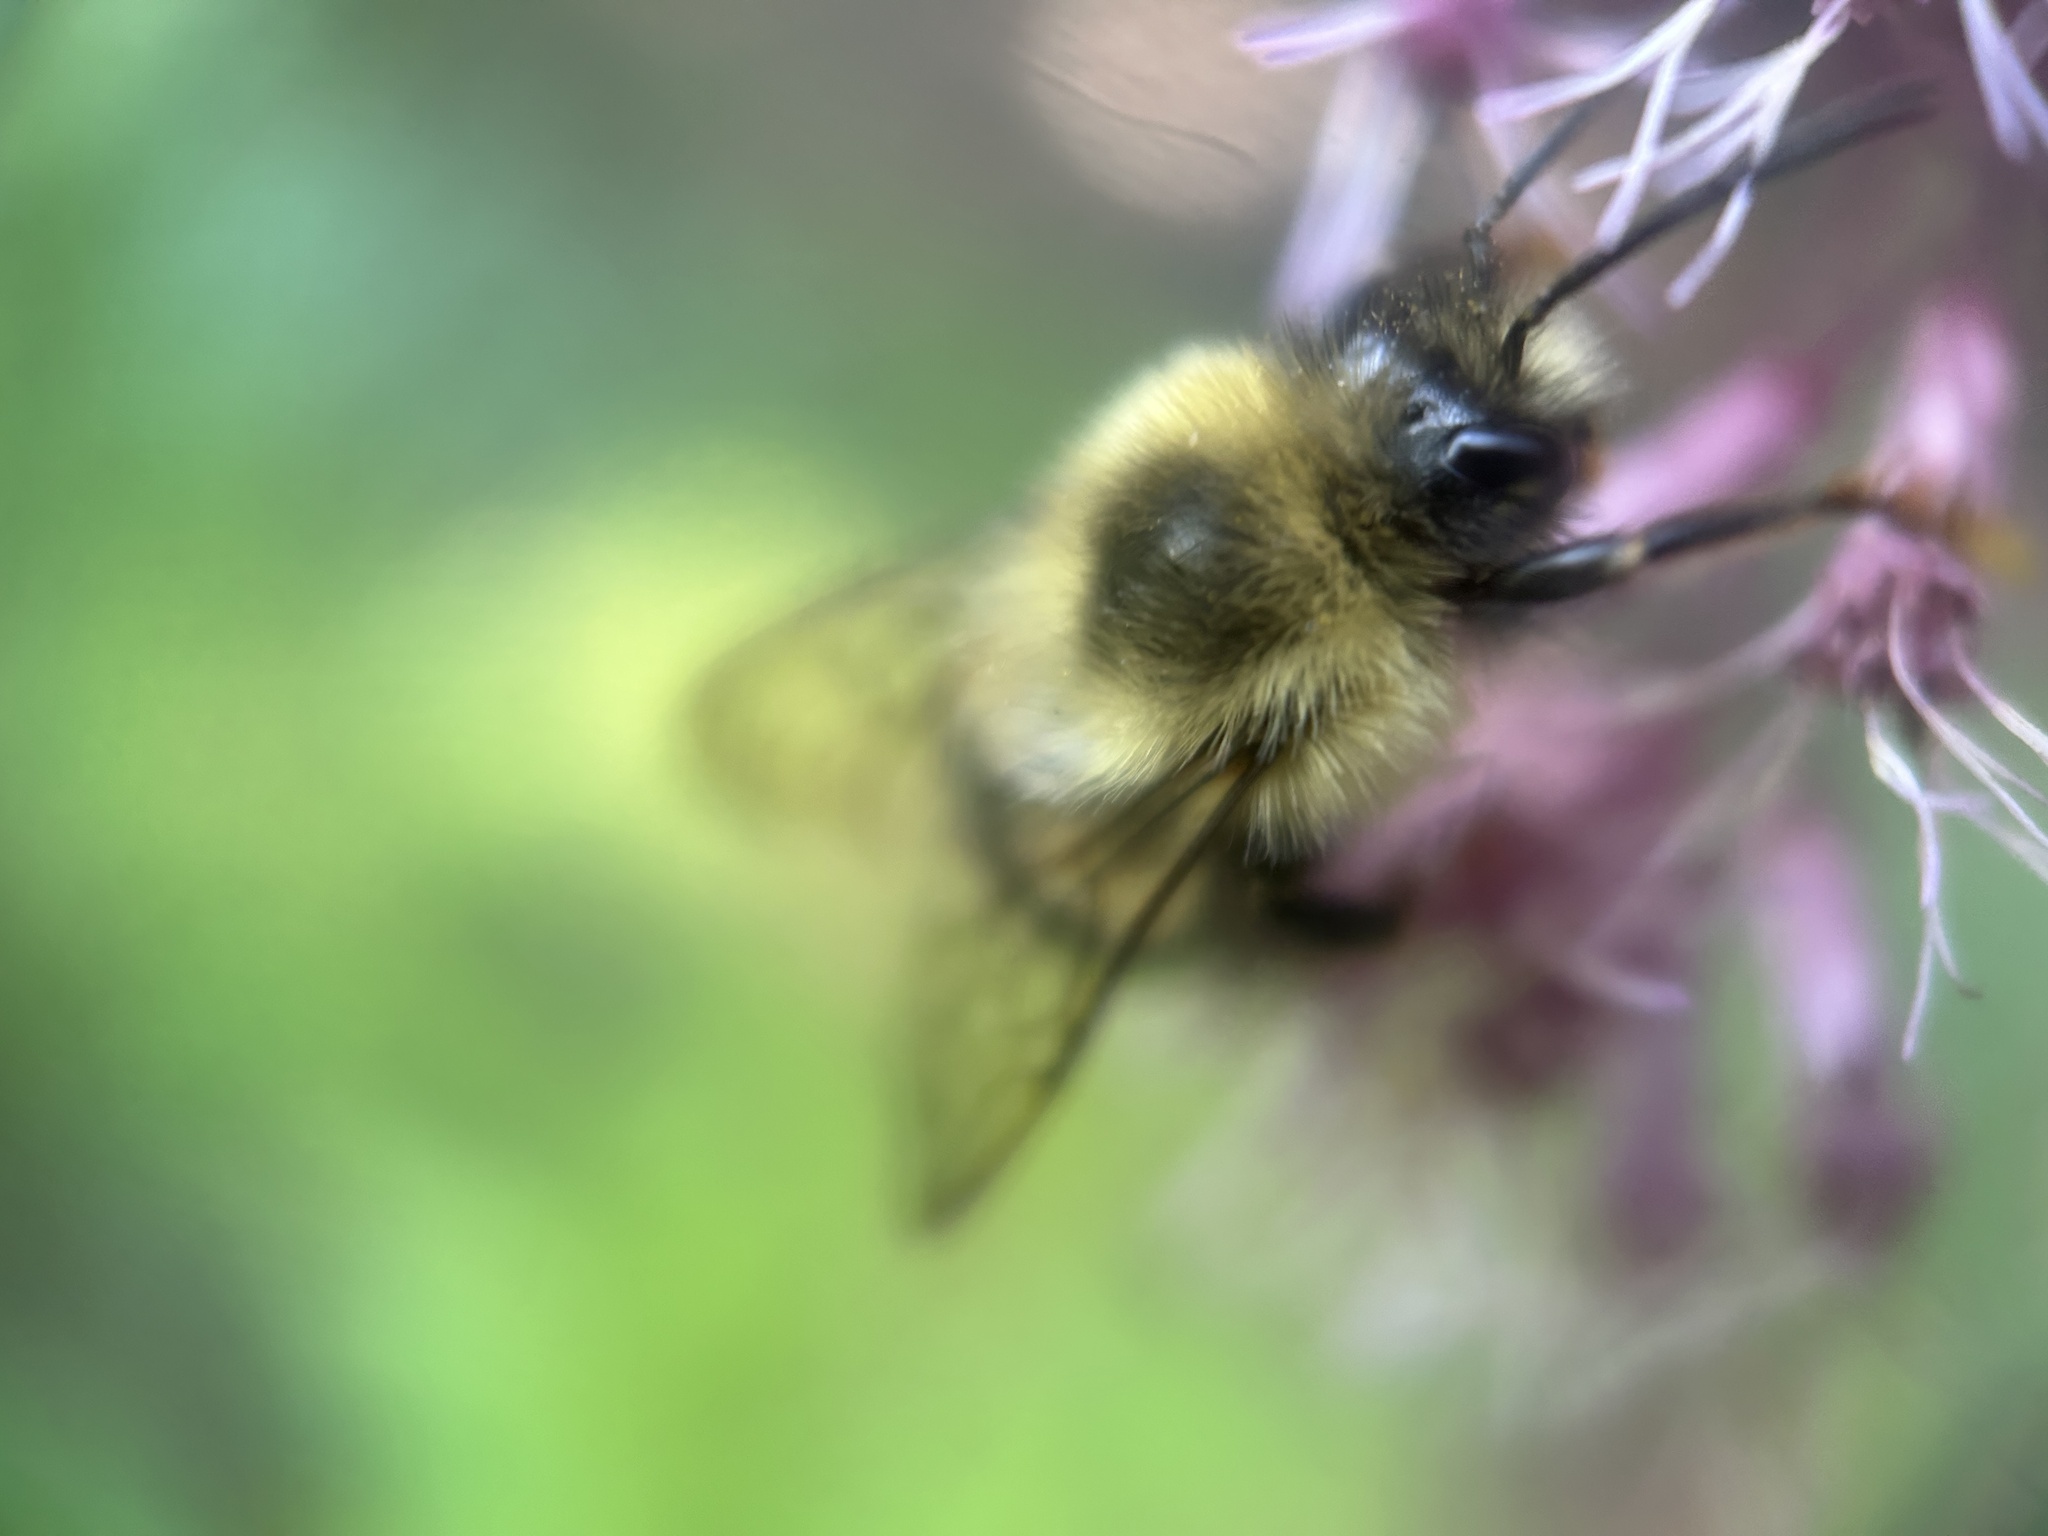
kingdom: Animalia
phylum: Arthropoda
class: Insecta
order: Hymenoptera
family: Apidae
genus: Bombus
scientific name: Bombus impatiens
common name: Common eastern bumble bee
